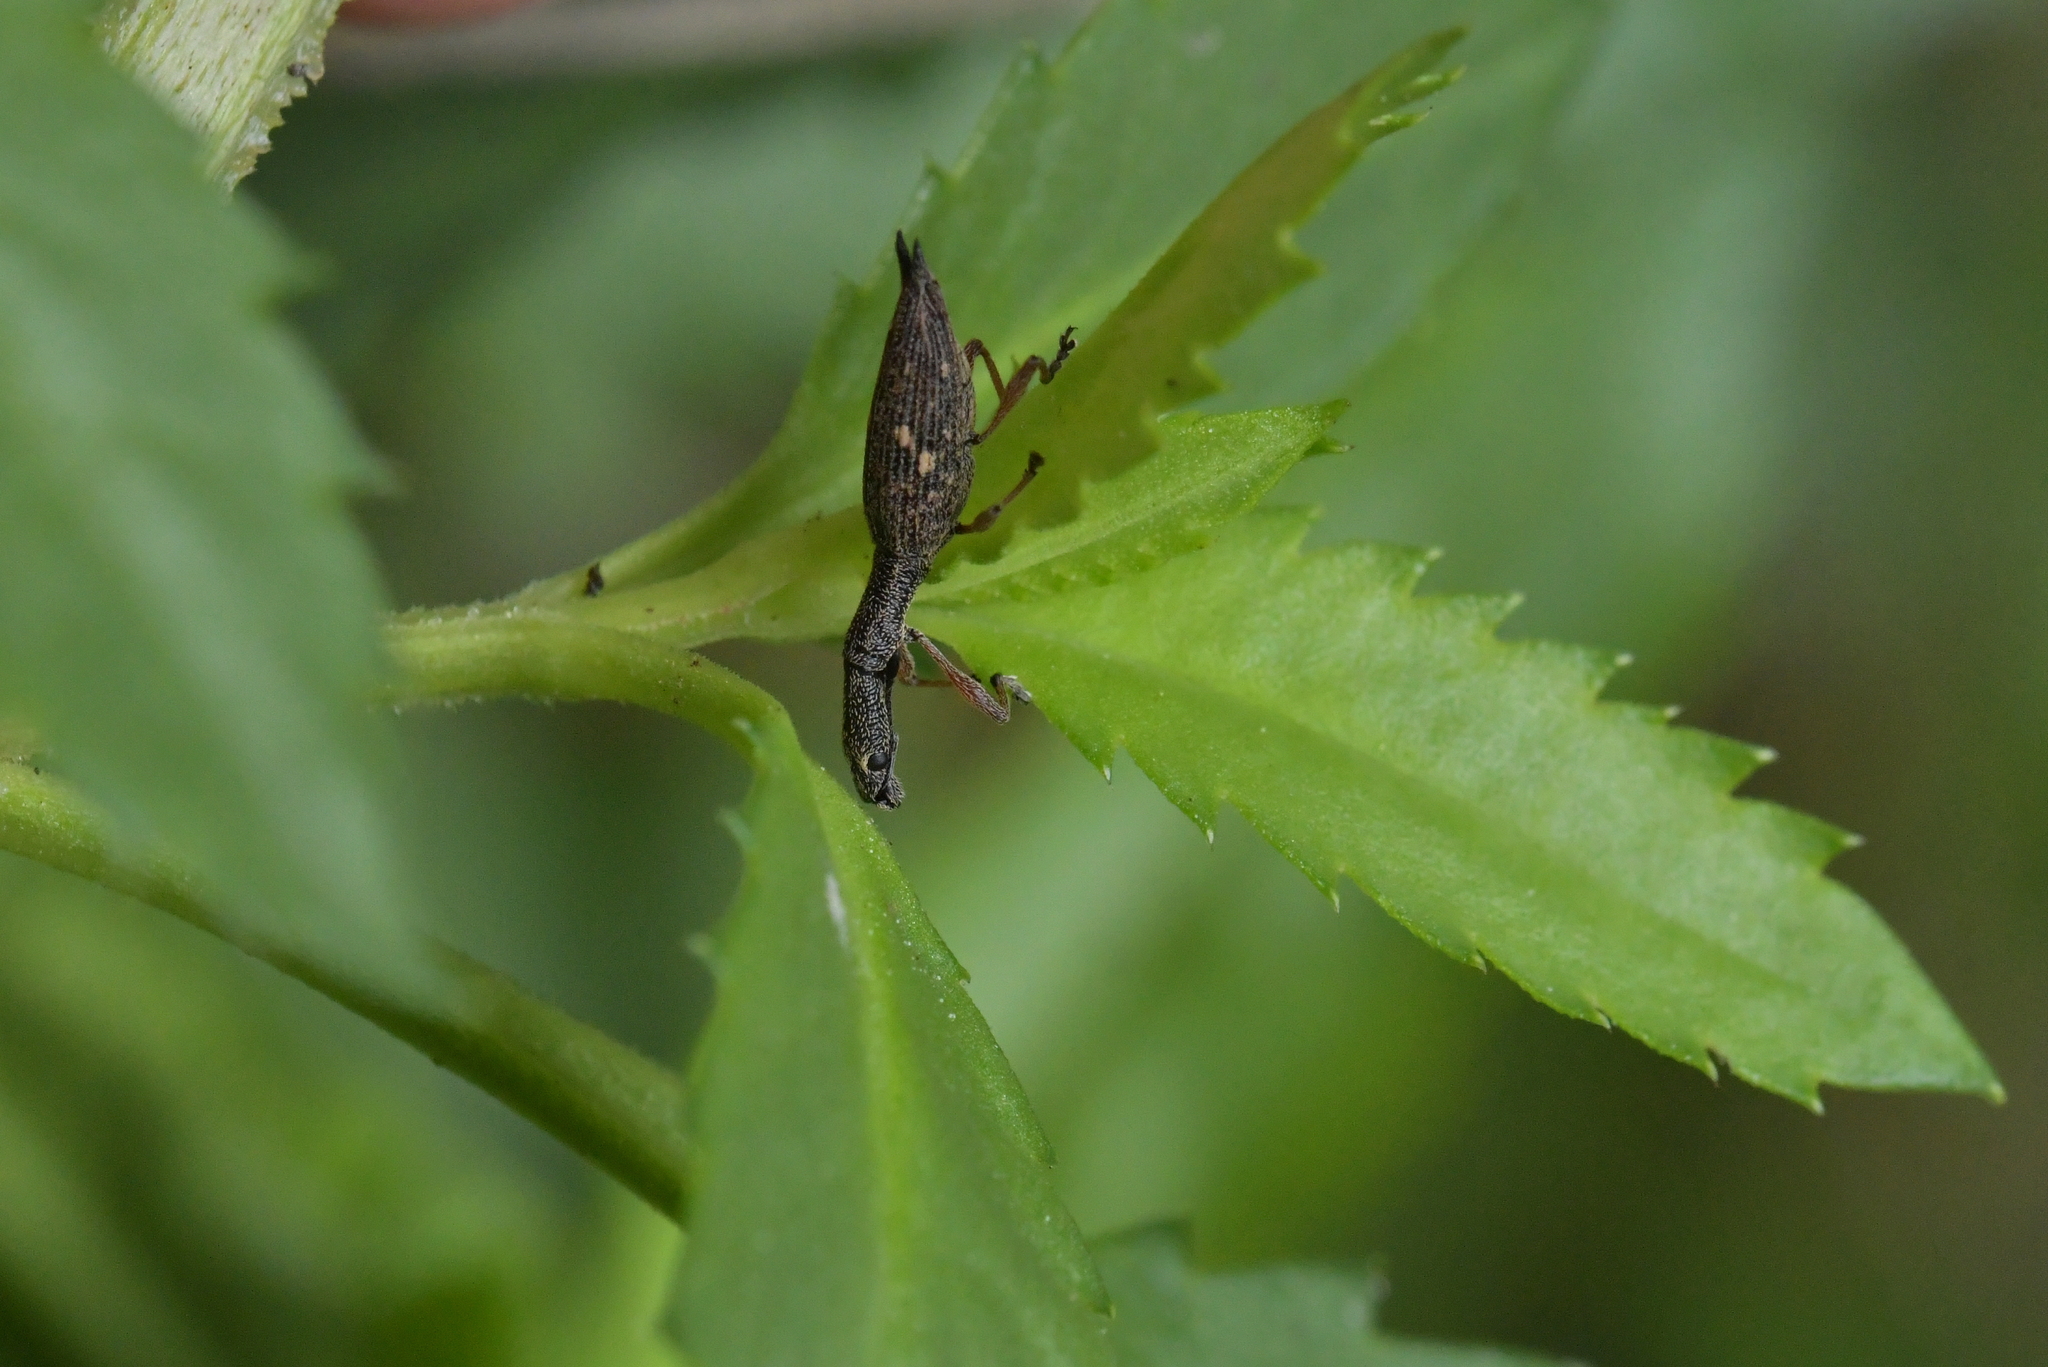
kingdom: Animalia
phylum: Arthropoda
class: Insecta
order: Coleoptera
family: Curculionidae
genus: Rhadinosomus
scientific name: Rhadinosomus acuminatus
